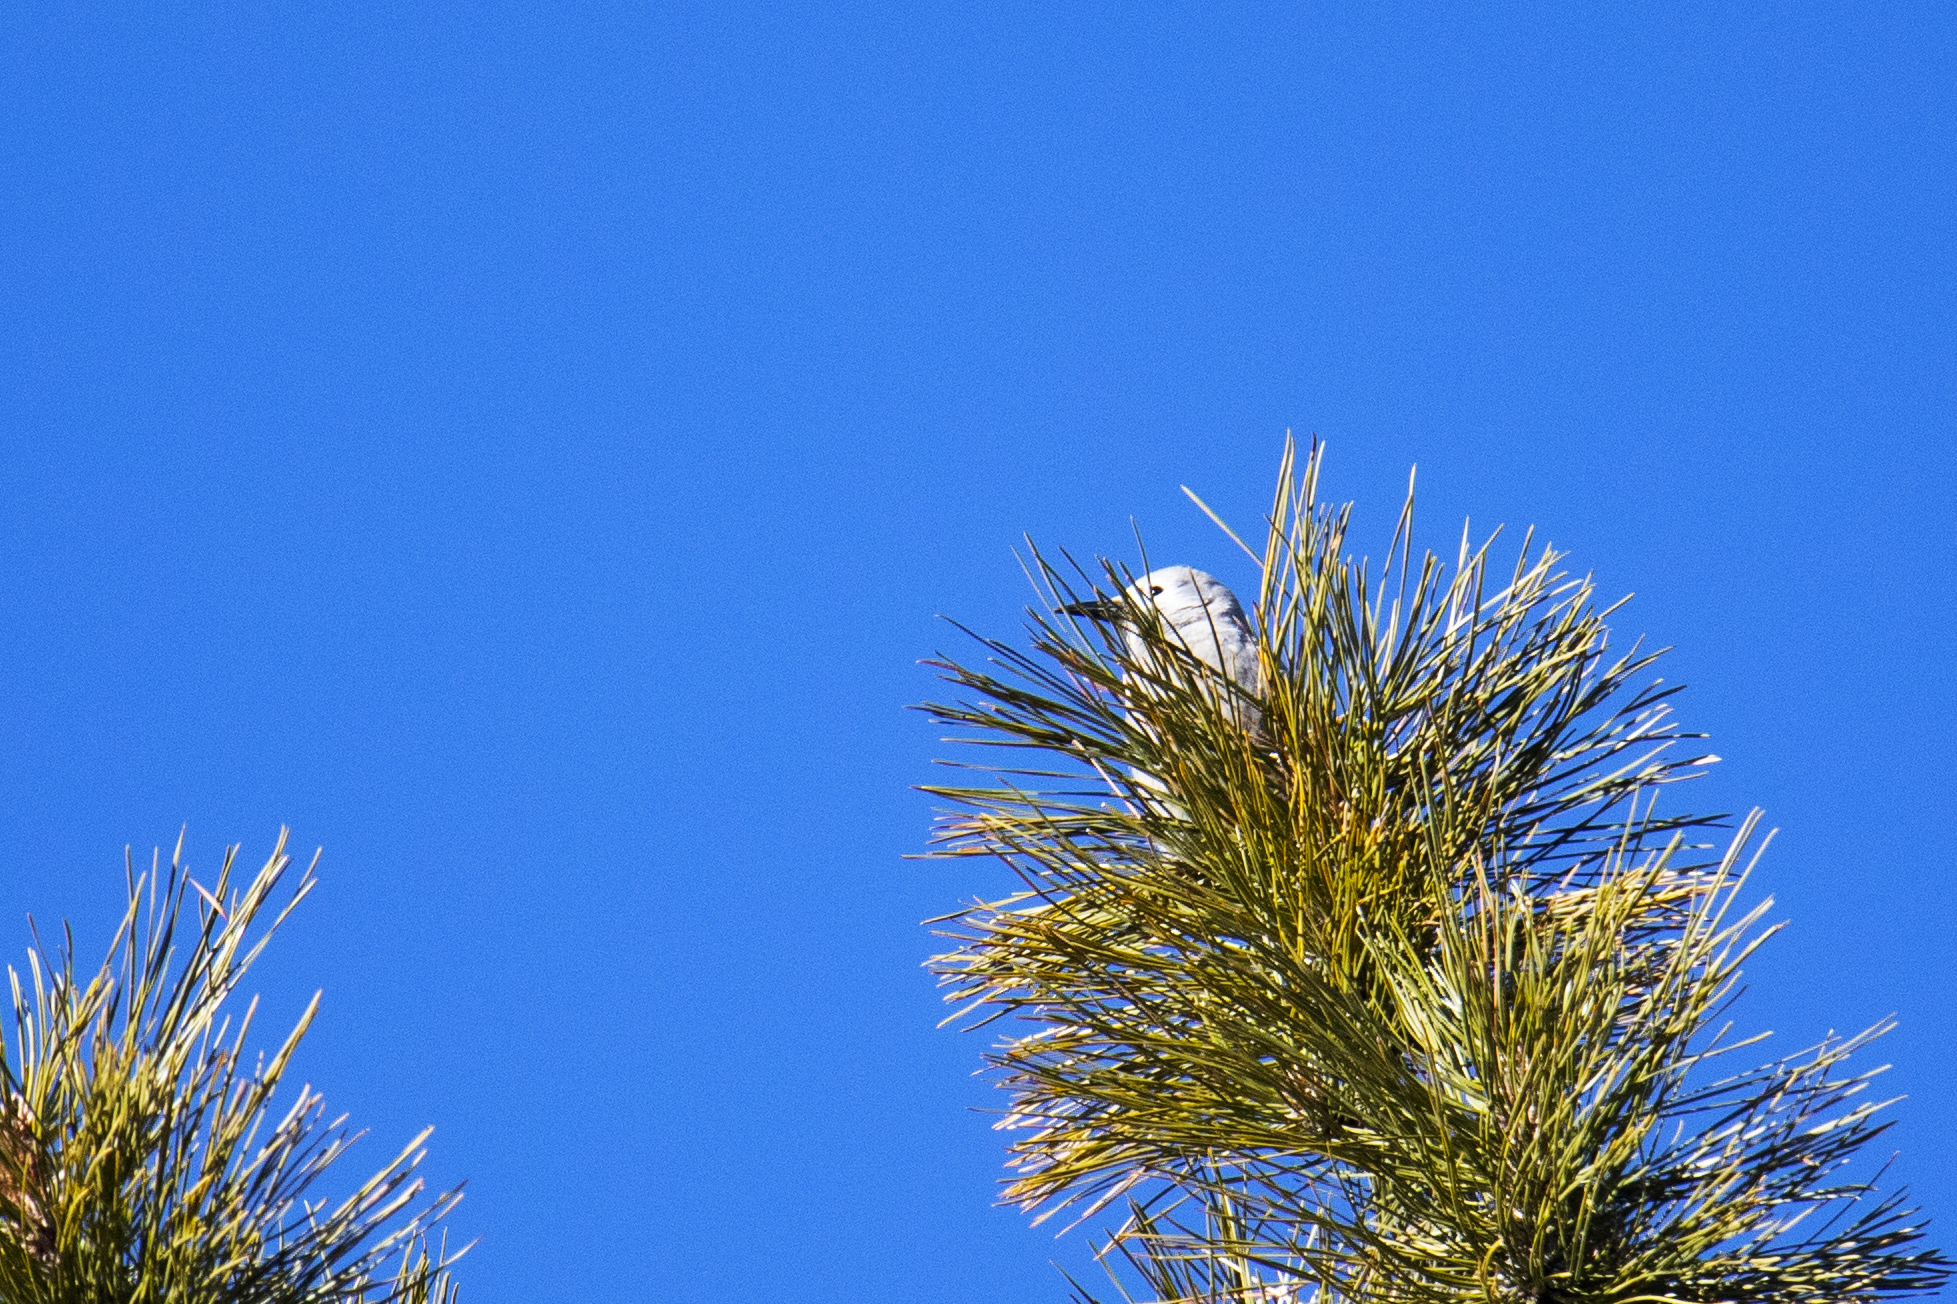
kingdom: Animalia
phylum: Chordata
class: Aves
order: Passeriformes
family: Corvidae
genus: Nucifraga
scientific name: Nucifraga columbiana
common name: Clark's nutcracker
